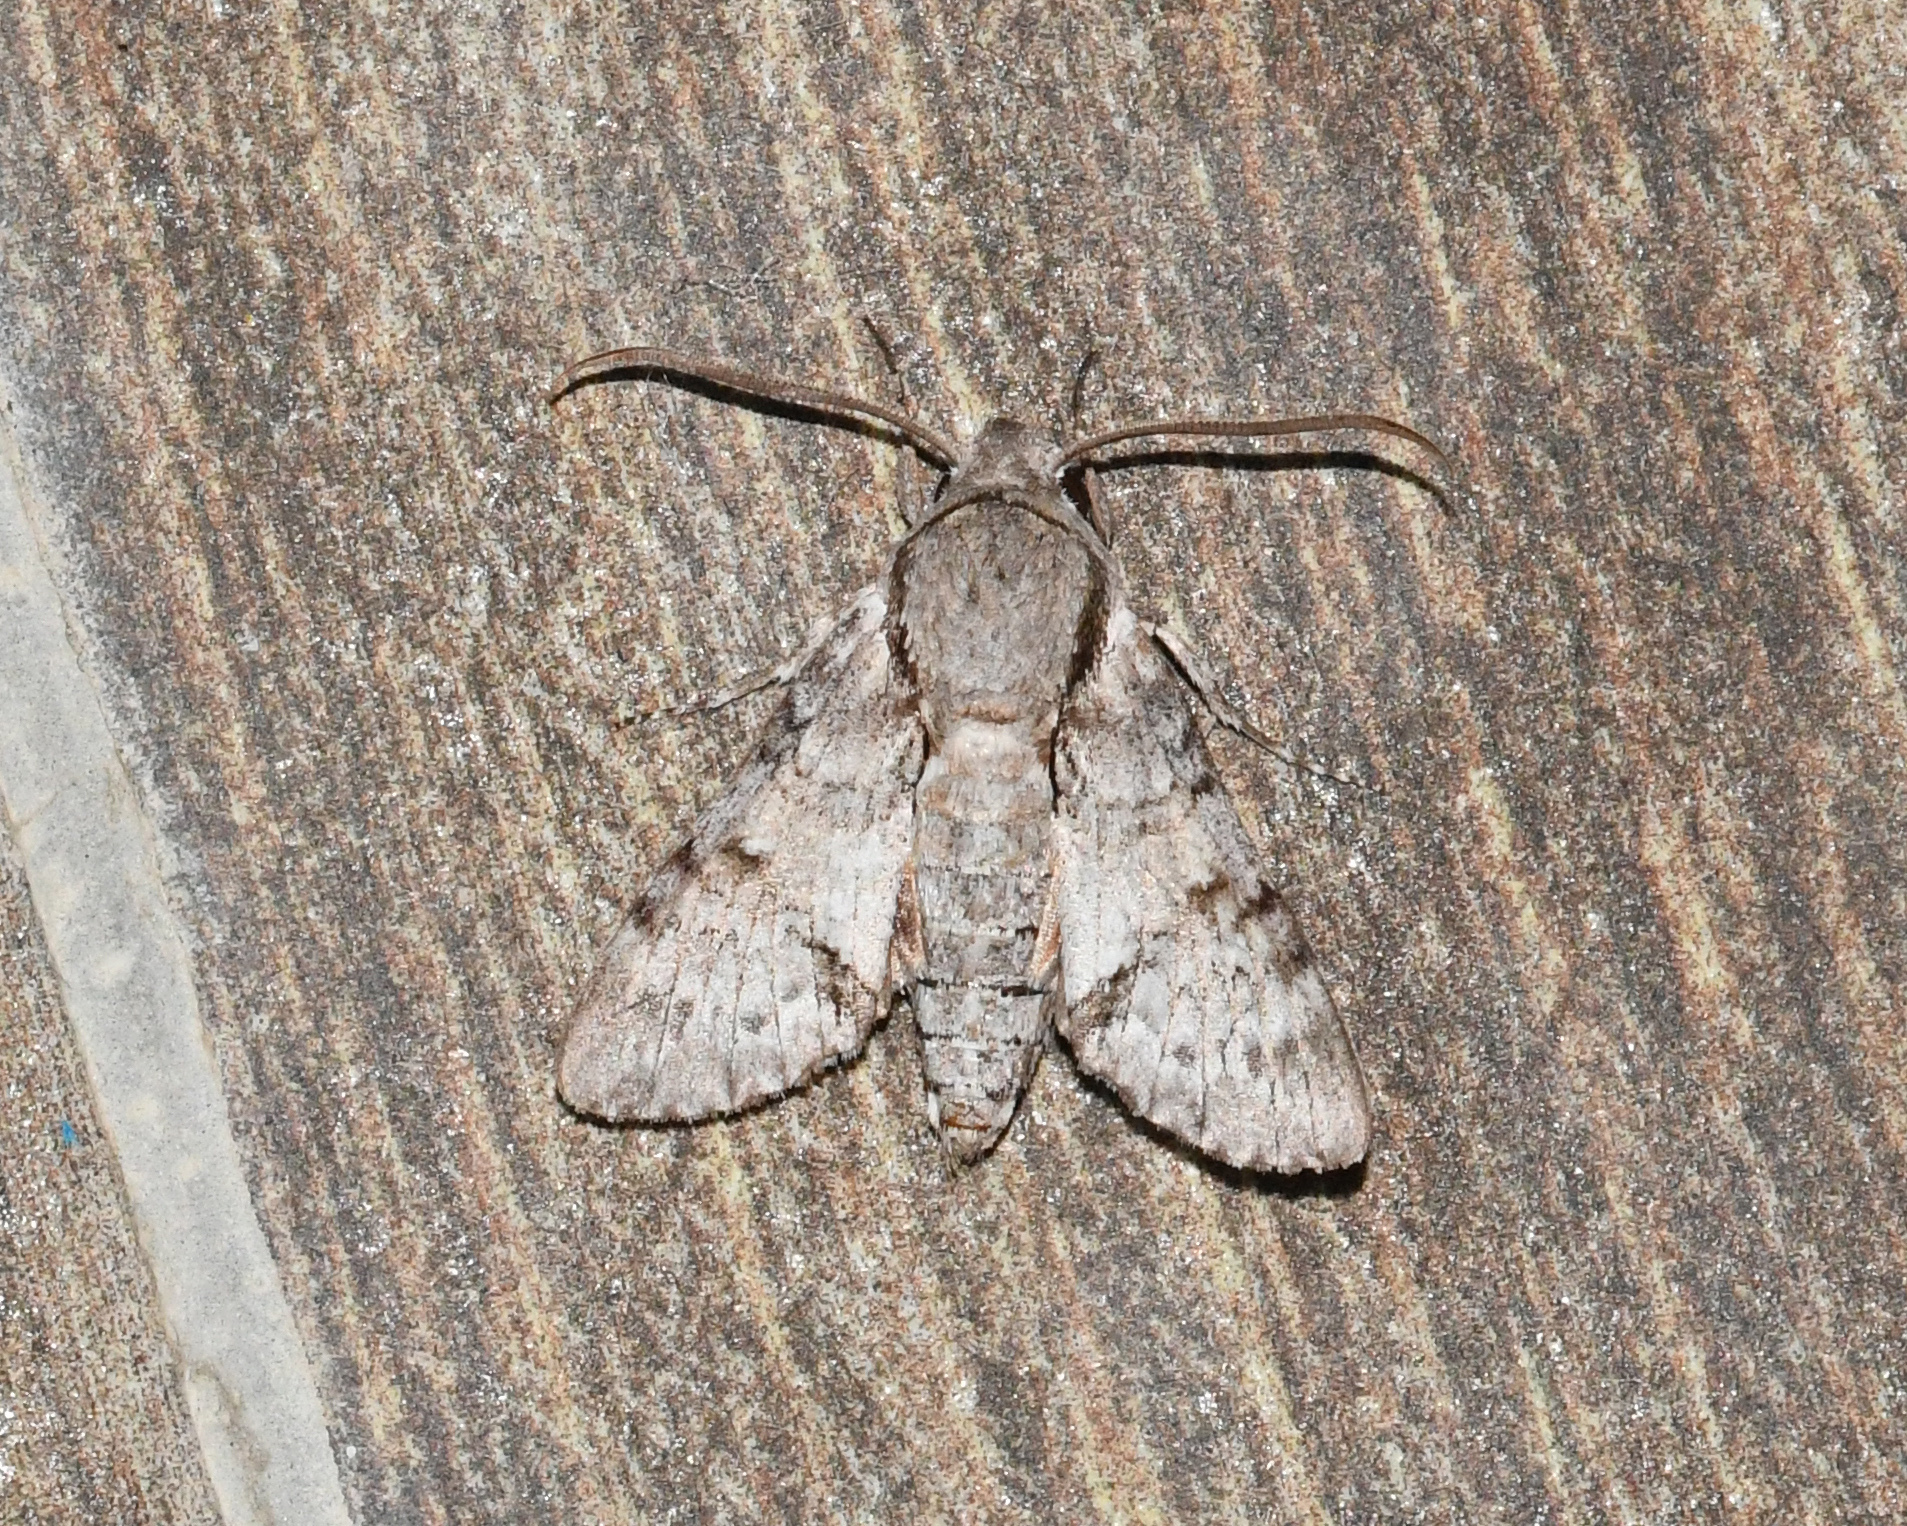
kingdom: Animalia
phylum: Arthropoda
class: Insecta
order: Lepidoptera
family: Sphingidae
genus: Cautethia
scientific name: Cautethia noctuiformis
